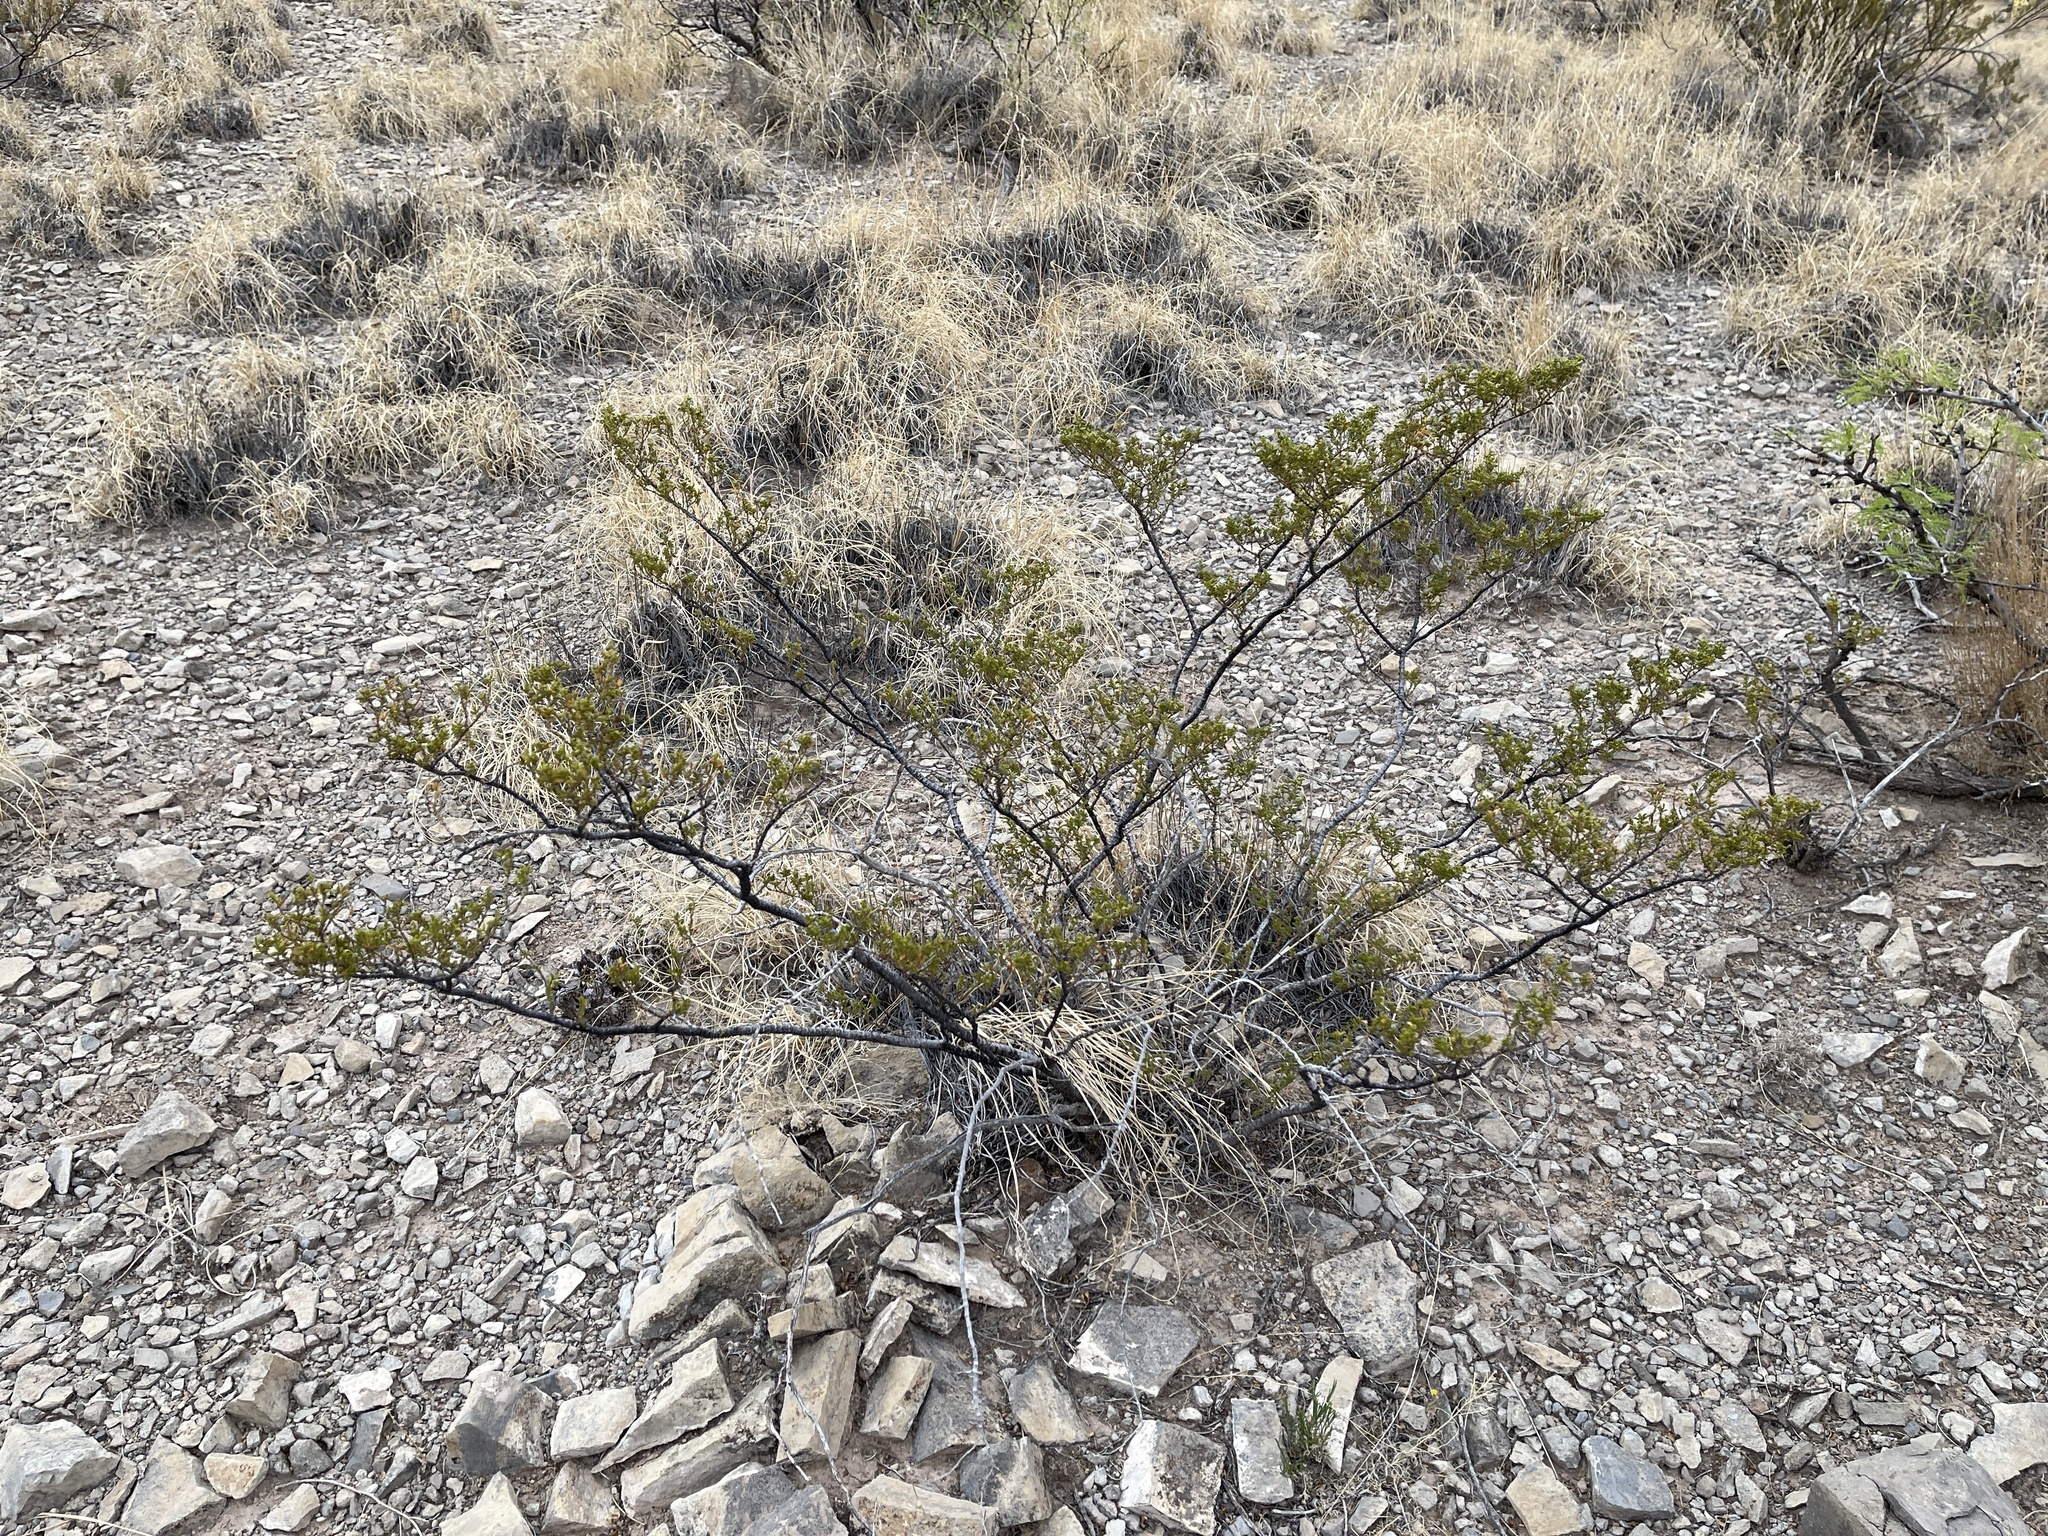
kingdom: Plantae
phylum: Tracheophyta
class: Magnoliopsida
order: Zygophyllales
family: Zygophyllaceae
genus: Larrea
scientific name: Larrea tridentata
